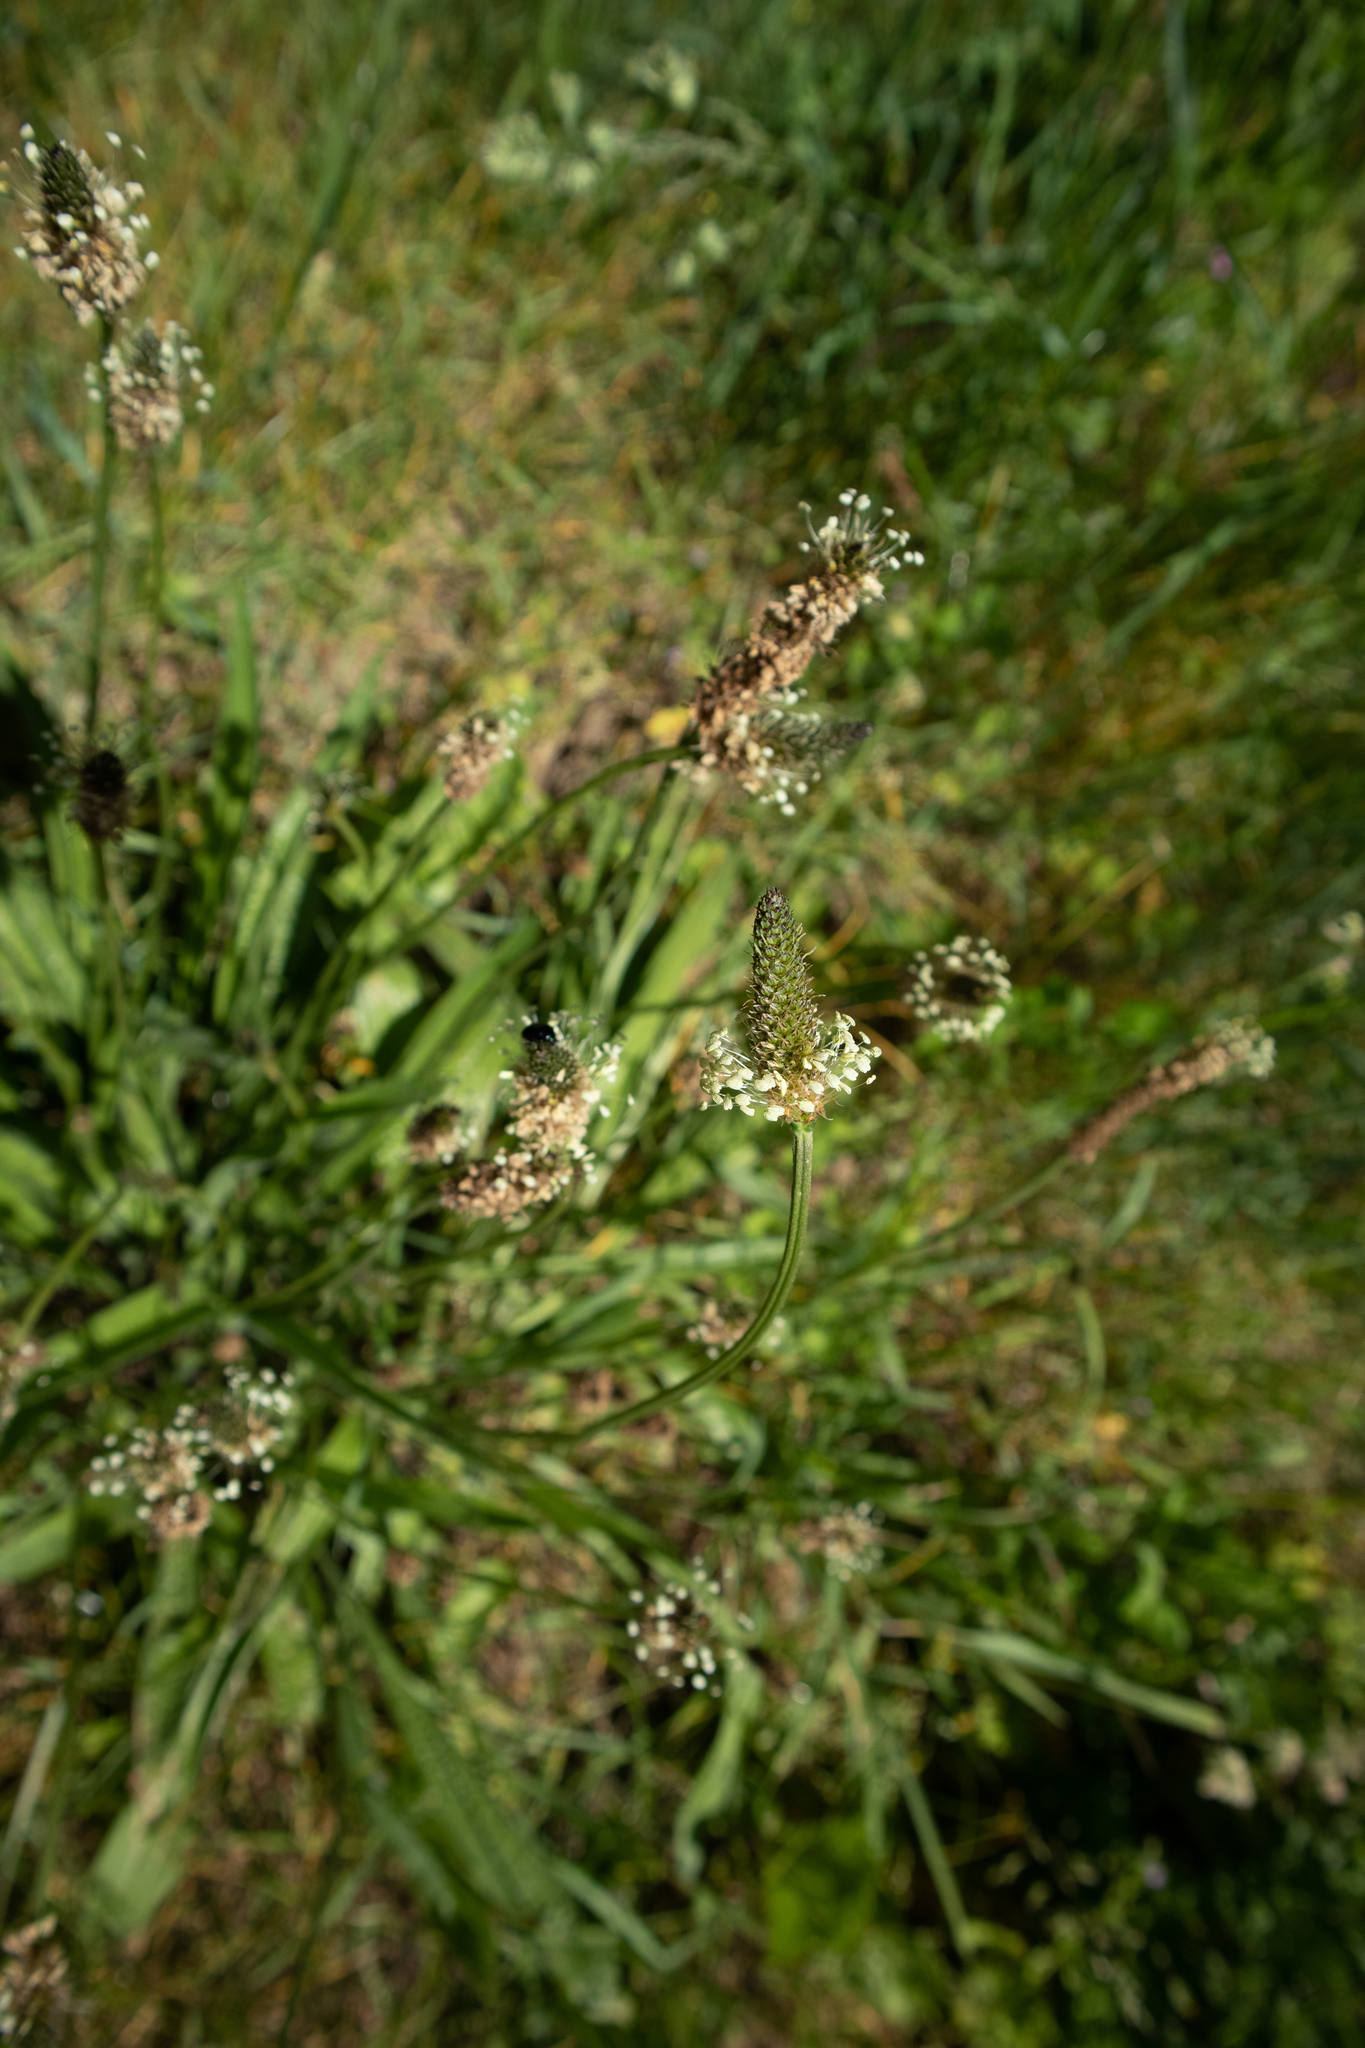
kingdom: Plantae
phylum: Tracheophyta
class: Magnoliopsida
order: Lamiales
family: Plantaginaceae
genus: Plantago
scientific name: Plantago lanceolata
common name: Ribwort plantain
